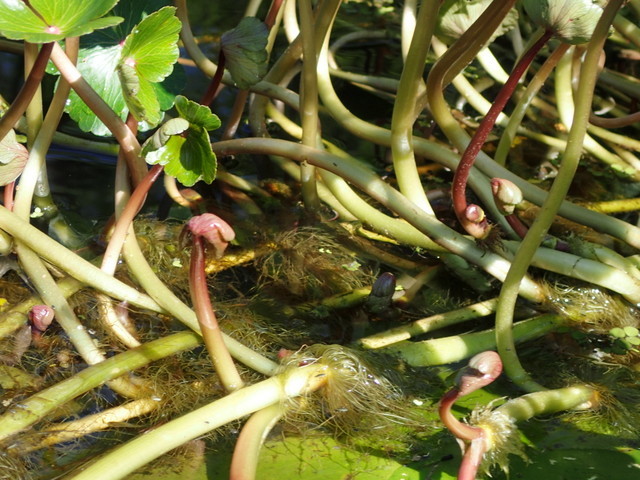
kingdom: Plantae
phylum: Tracheophyta
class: Magnoliopsida
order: Apiales
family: Araliaceae
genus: Hydrocotyle
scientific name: Hydrocotyle ranunculoides
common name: Floating pennywort
